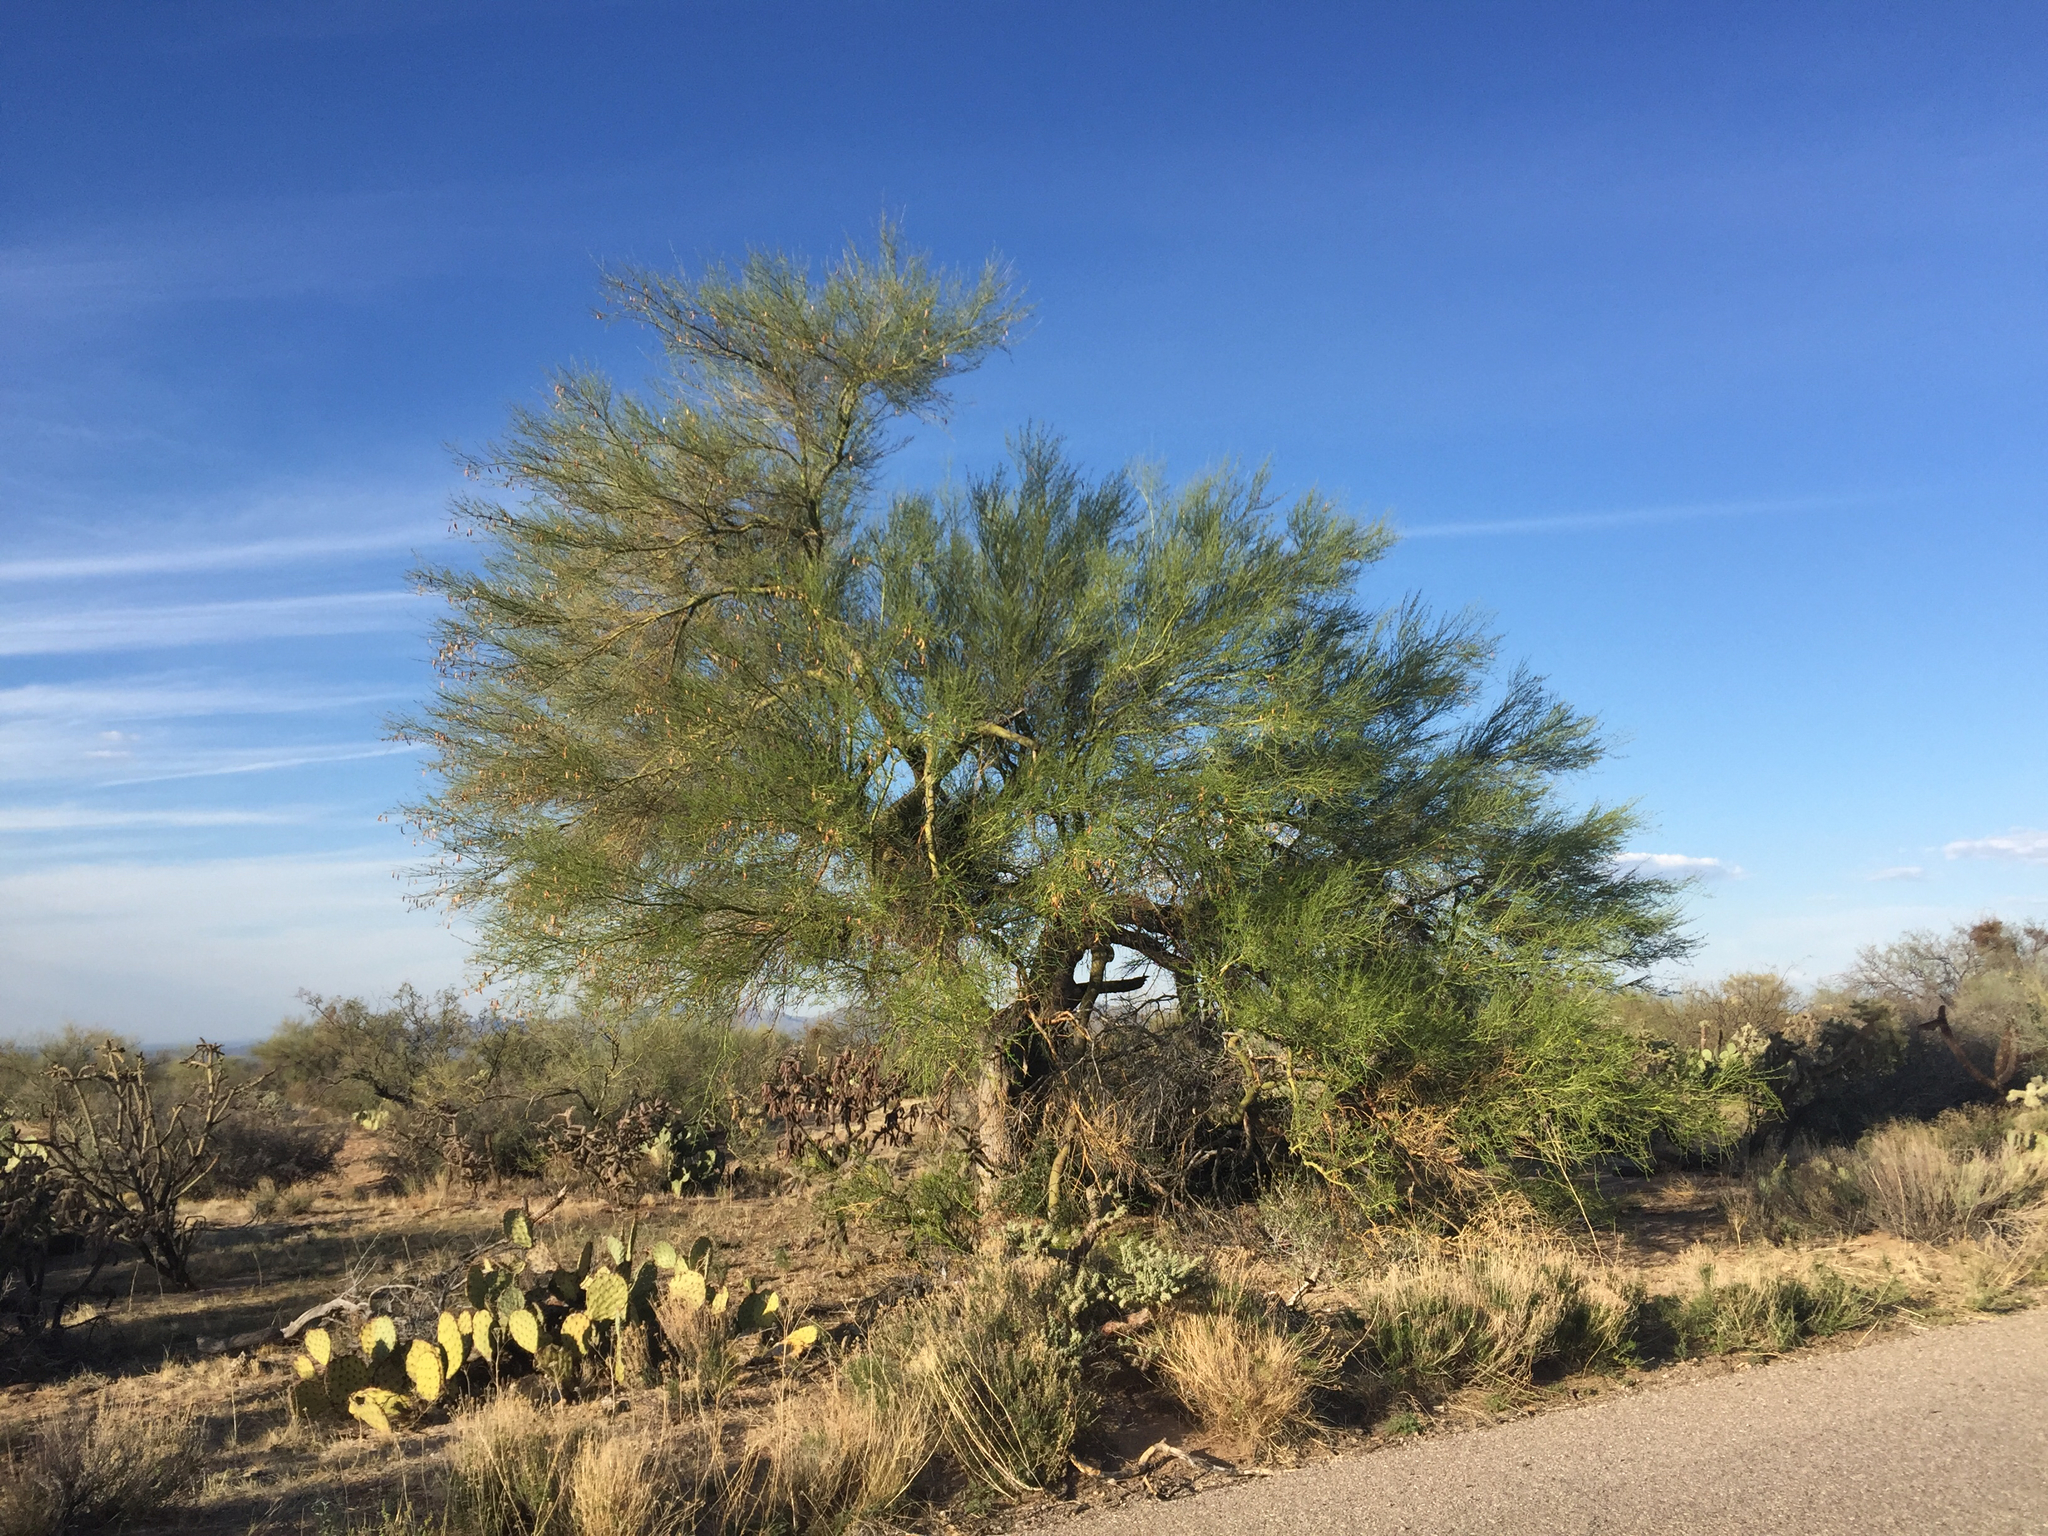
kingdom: Plantae
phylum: Tracheophyta
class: Magnoliopsida
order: Fabales
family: Fabaceae
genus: Parkinsonia
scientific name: Parkinsonia florida
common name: Blue paloverde
